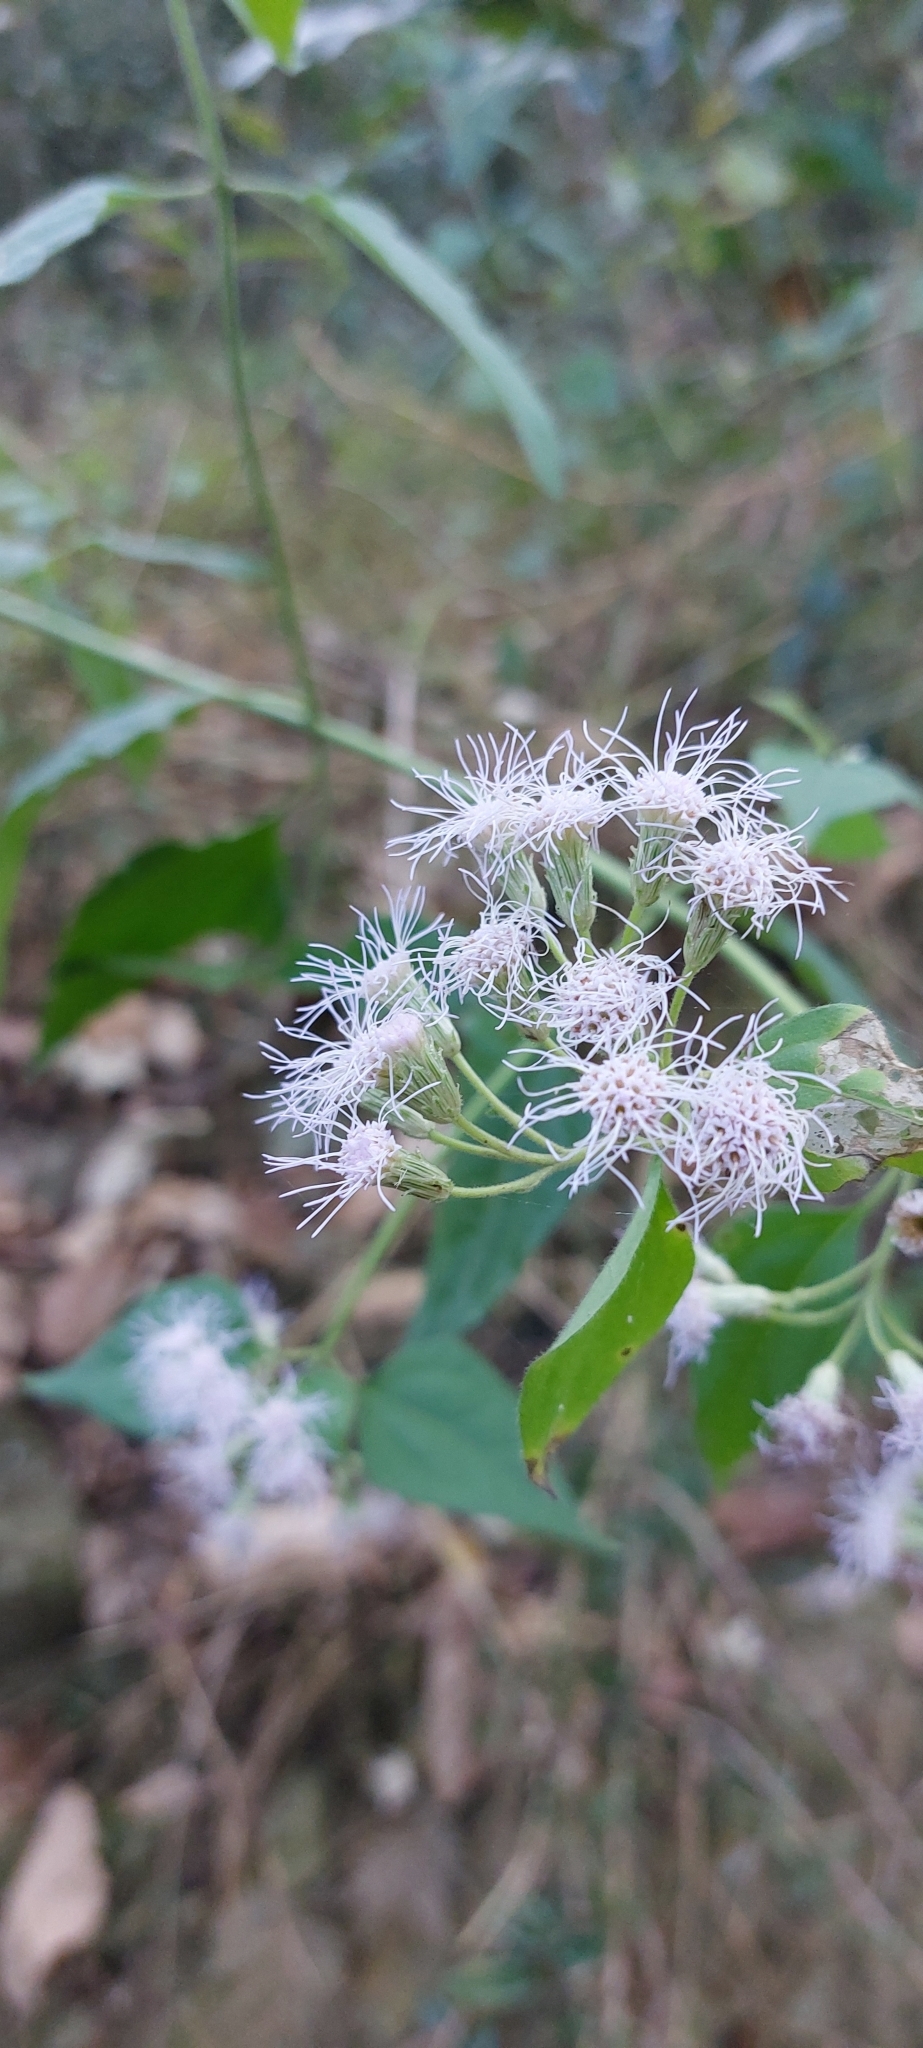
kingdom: Plantae
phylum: Tracheophyta
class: Magnoliopsida
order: Asterales
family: Asteraceae
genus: Chromolaena
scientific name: Chromolaena odorata
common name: Siamweed
